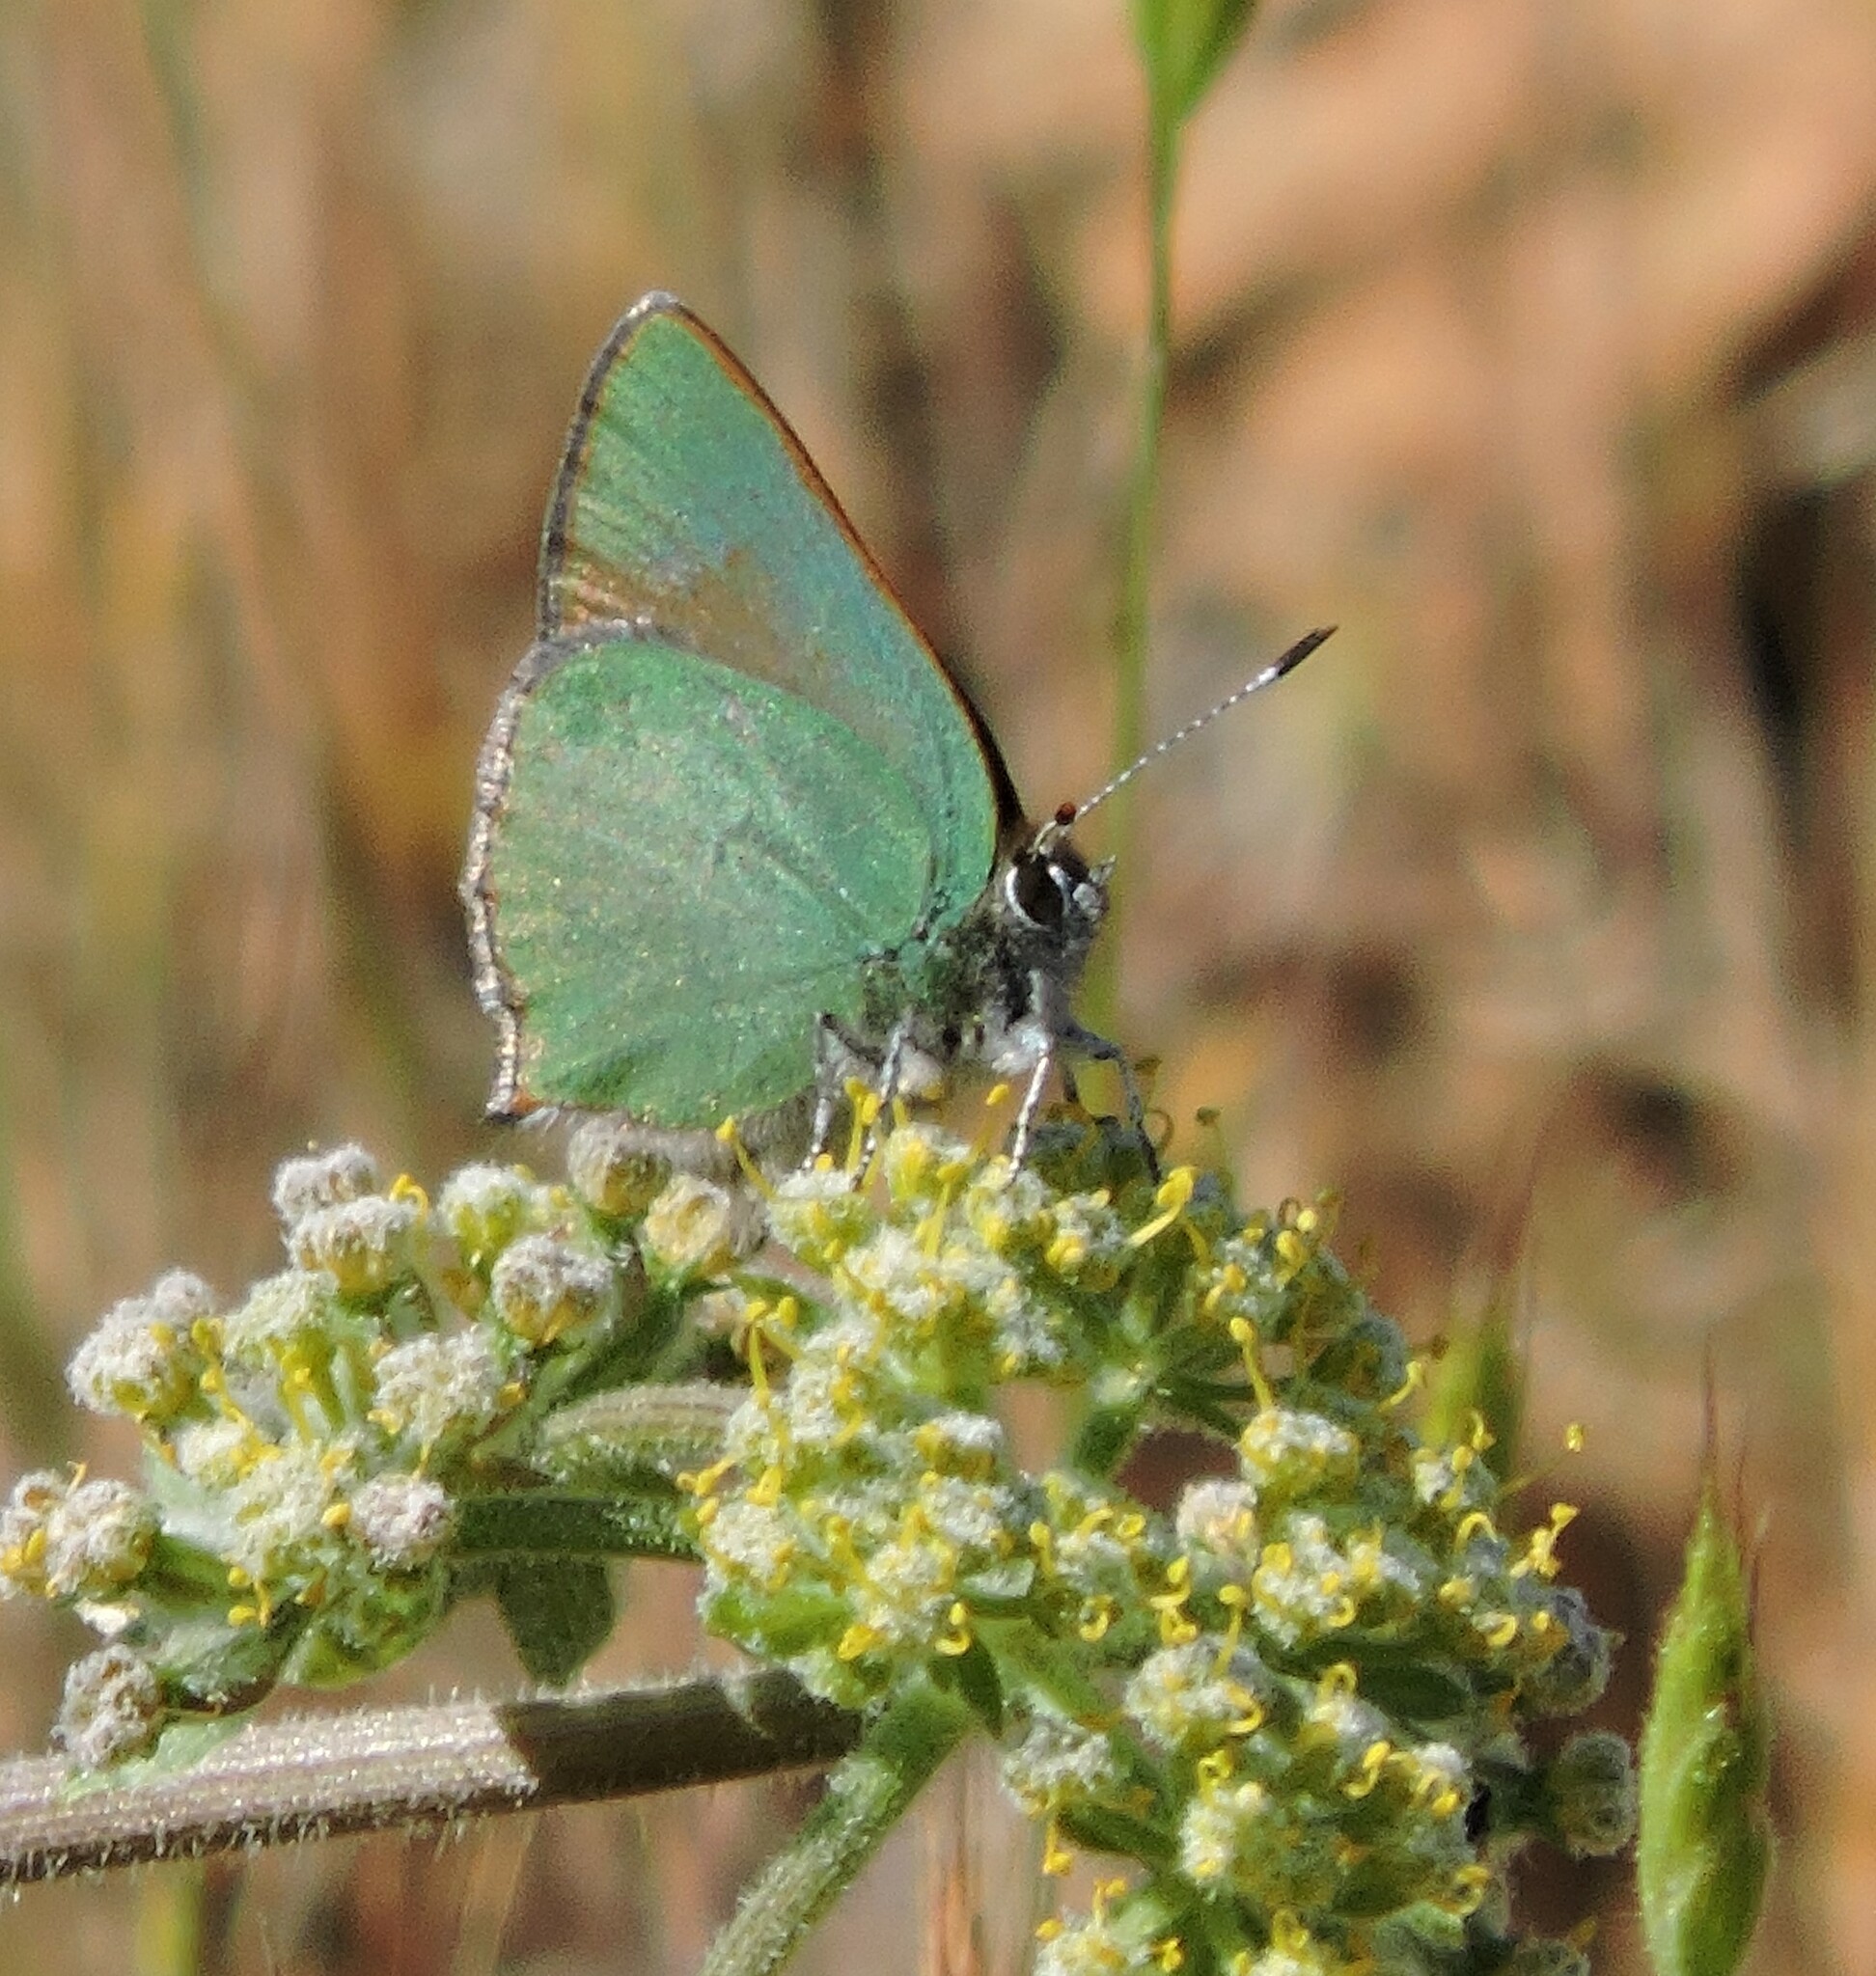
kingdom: Animalia
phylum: Arthropoda
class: Insecta
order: Lepidoptera
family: Lycaenidae
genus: Callophrys
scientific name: Callophrys dumetorum
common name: Bramble hairstreak
